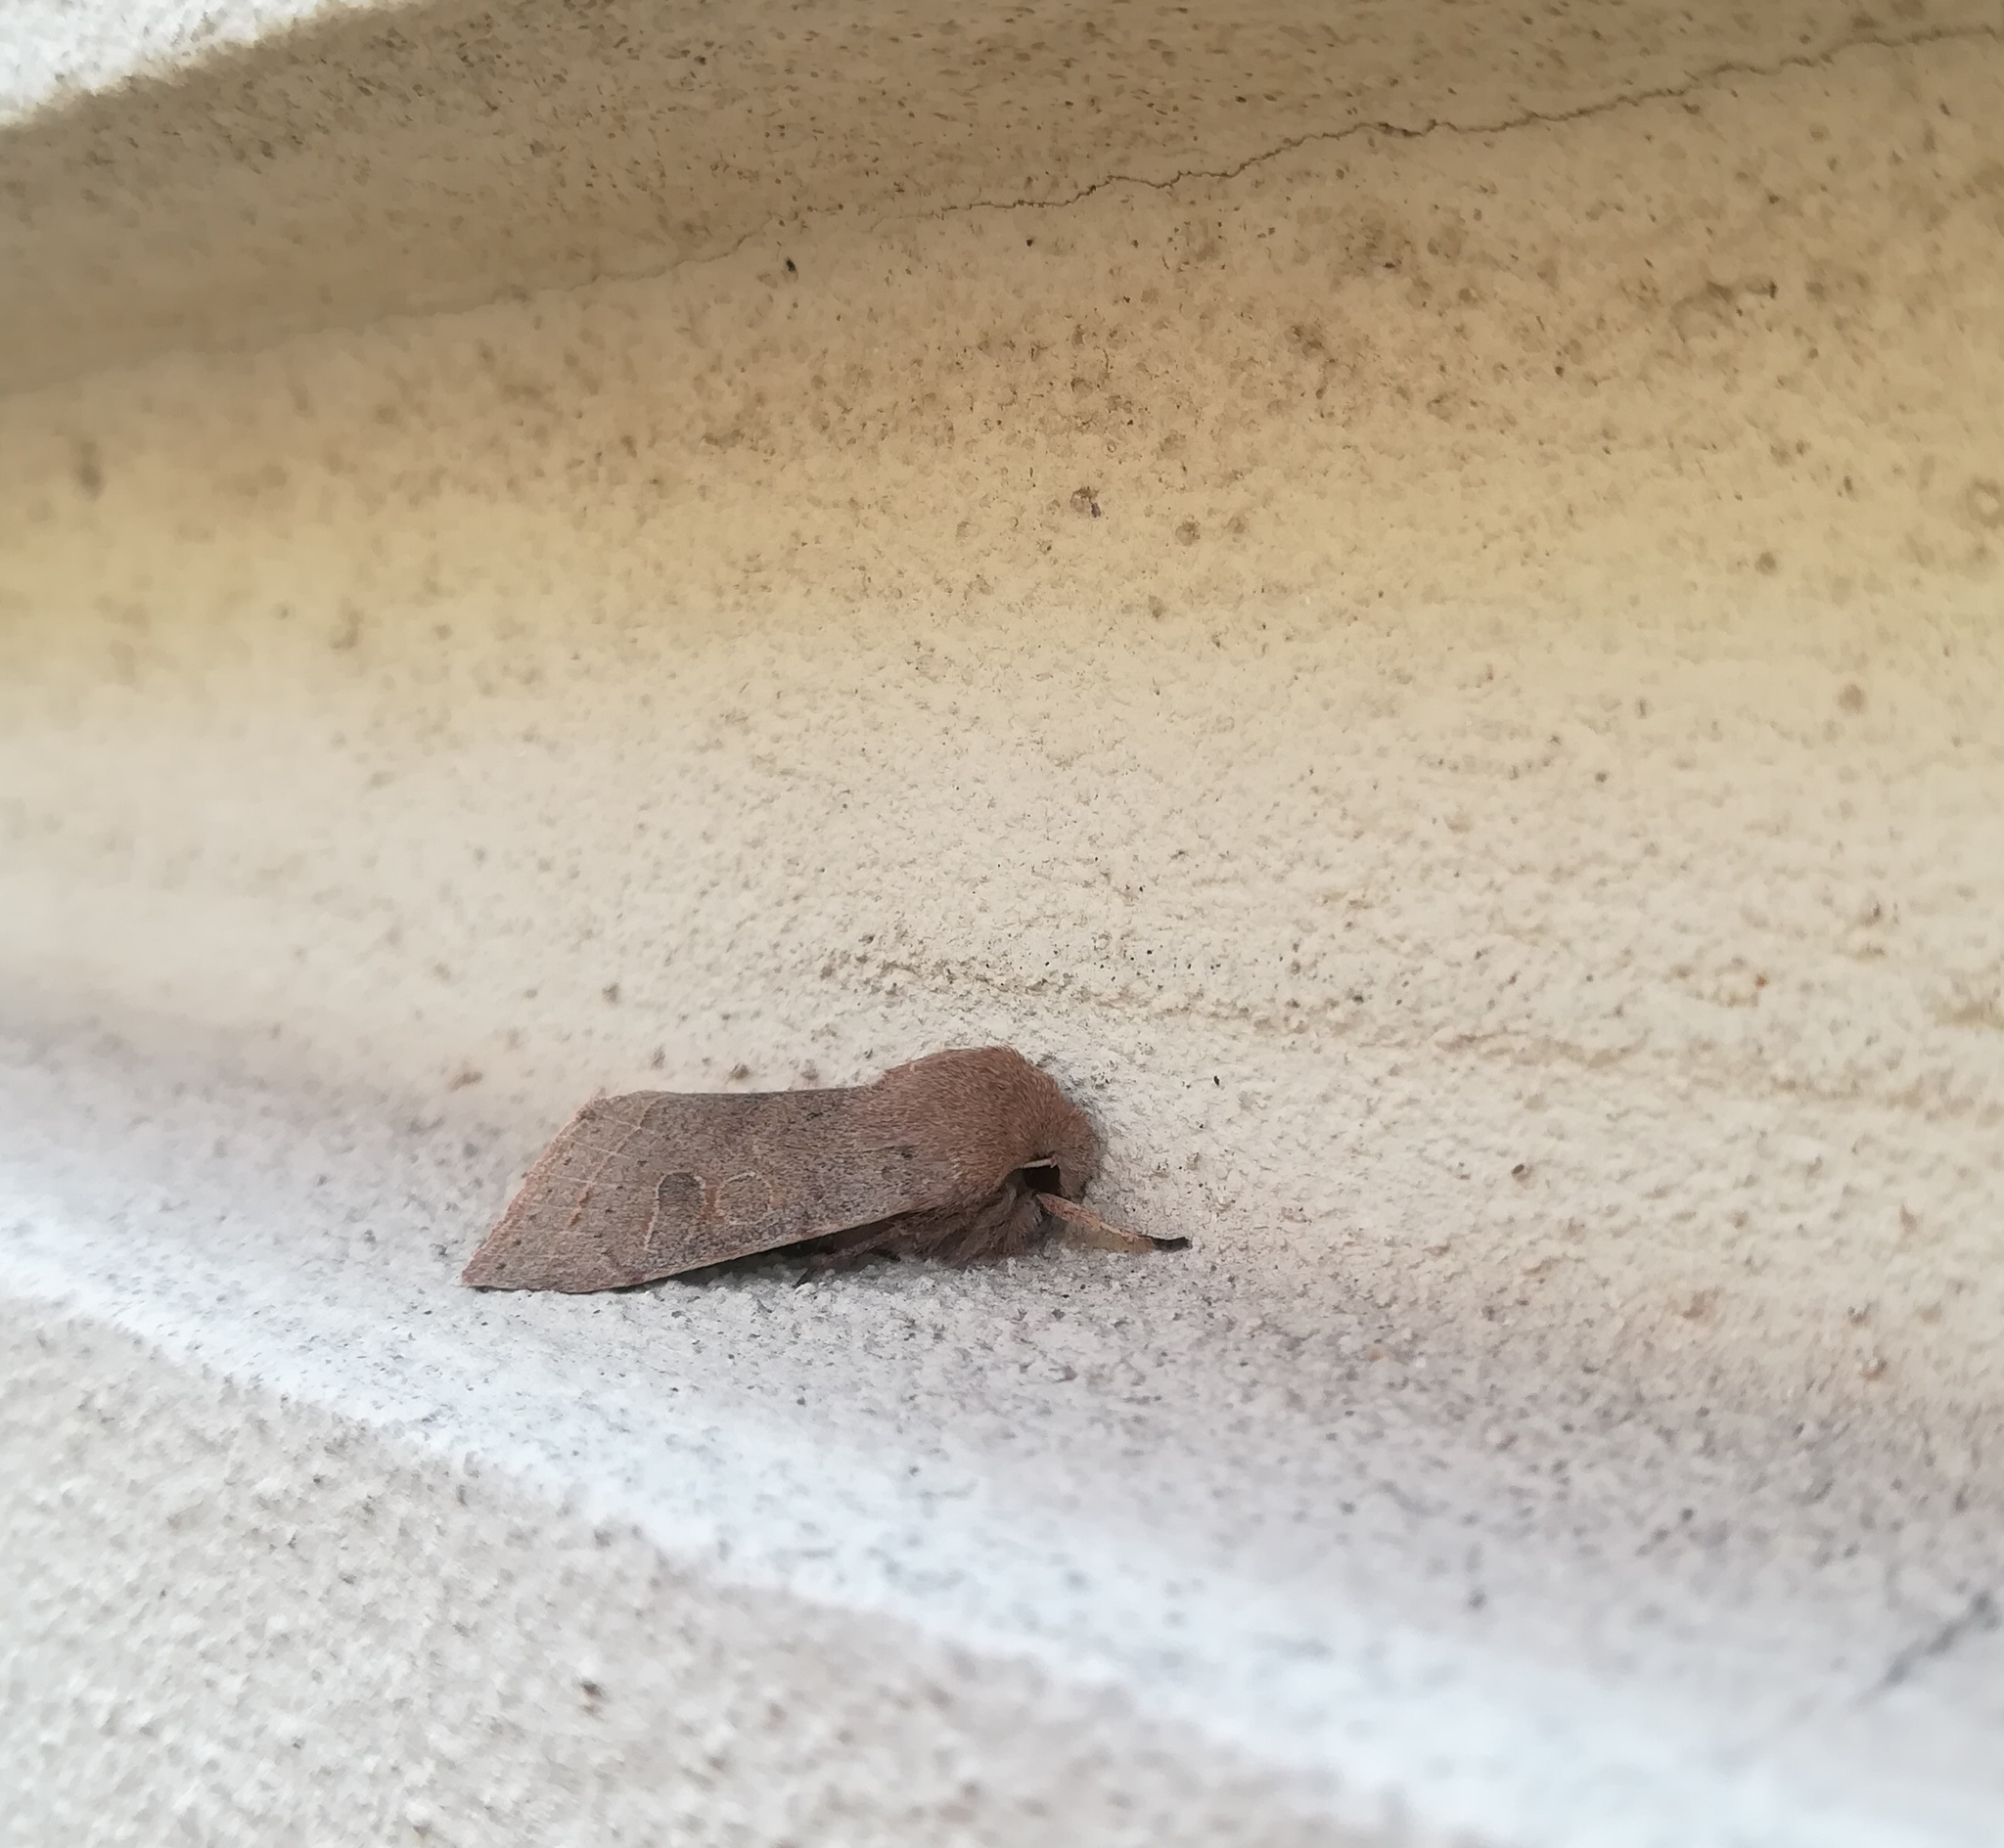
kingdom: Animalia
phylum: Arthropoda
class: Insecta
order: Lepidoptera
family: Noctuidae
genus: Orthosia
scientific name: Orthosia cerasi
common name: Common quaker
